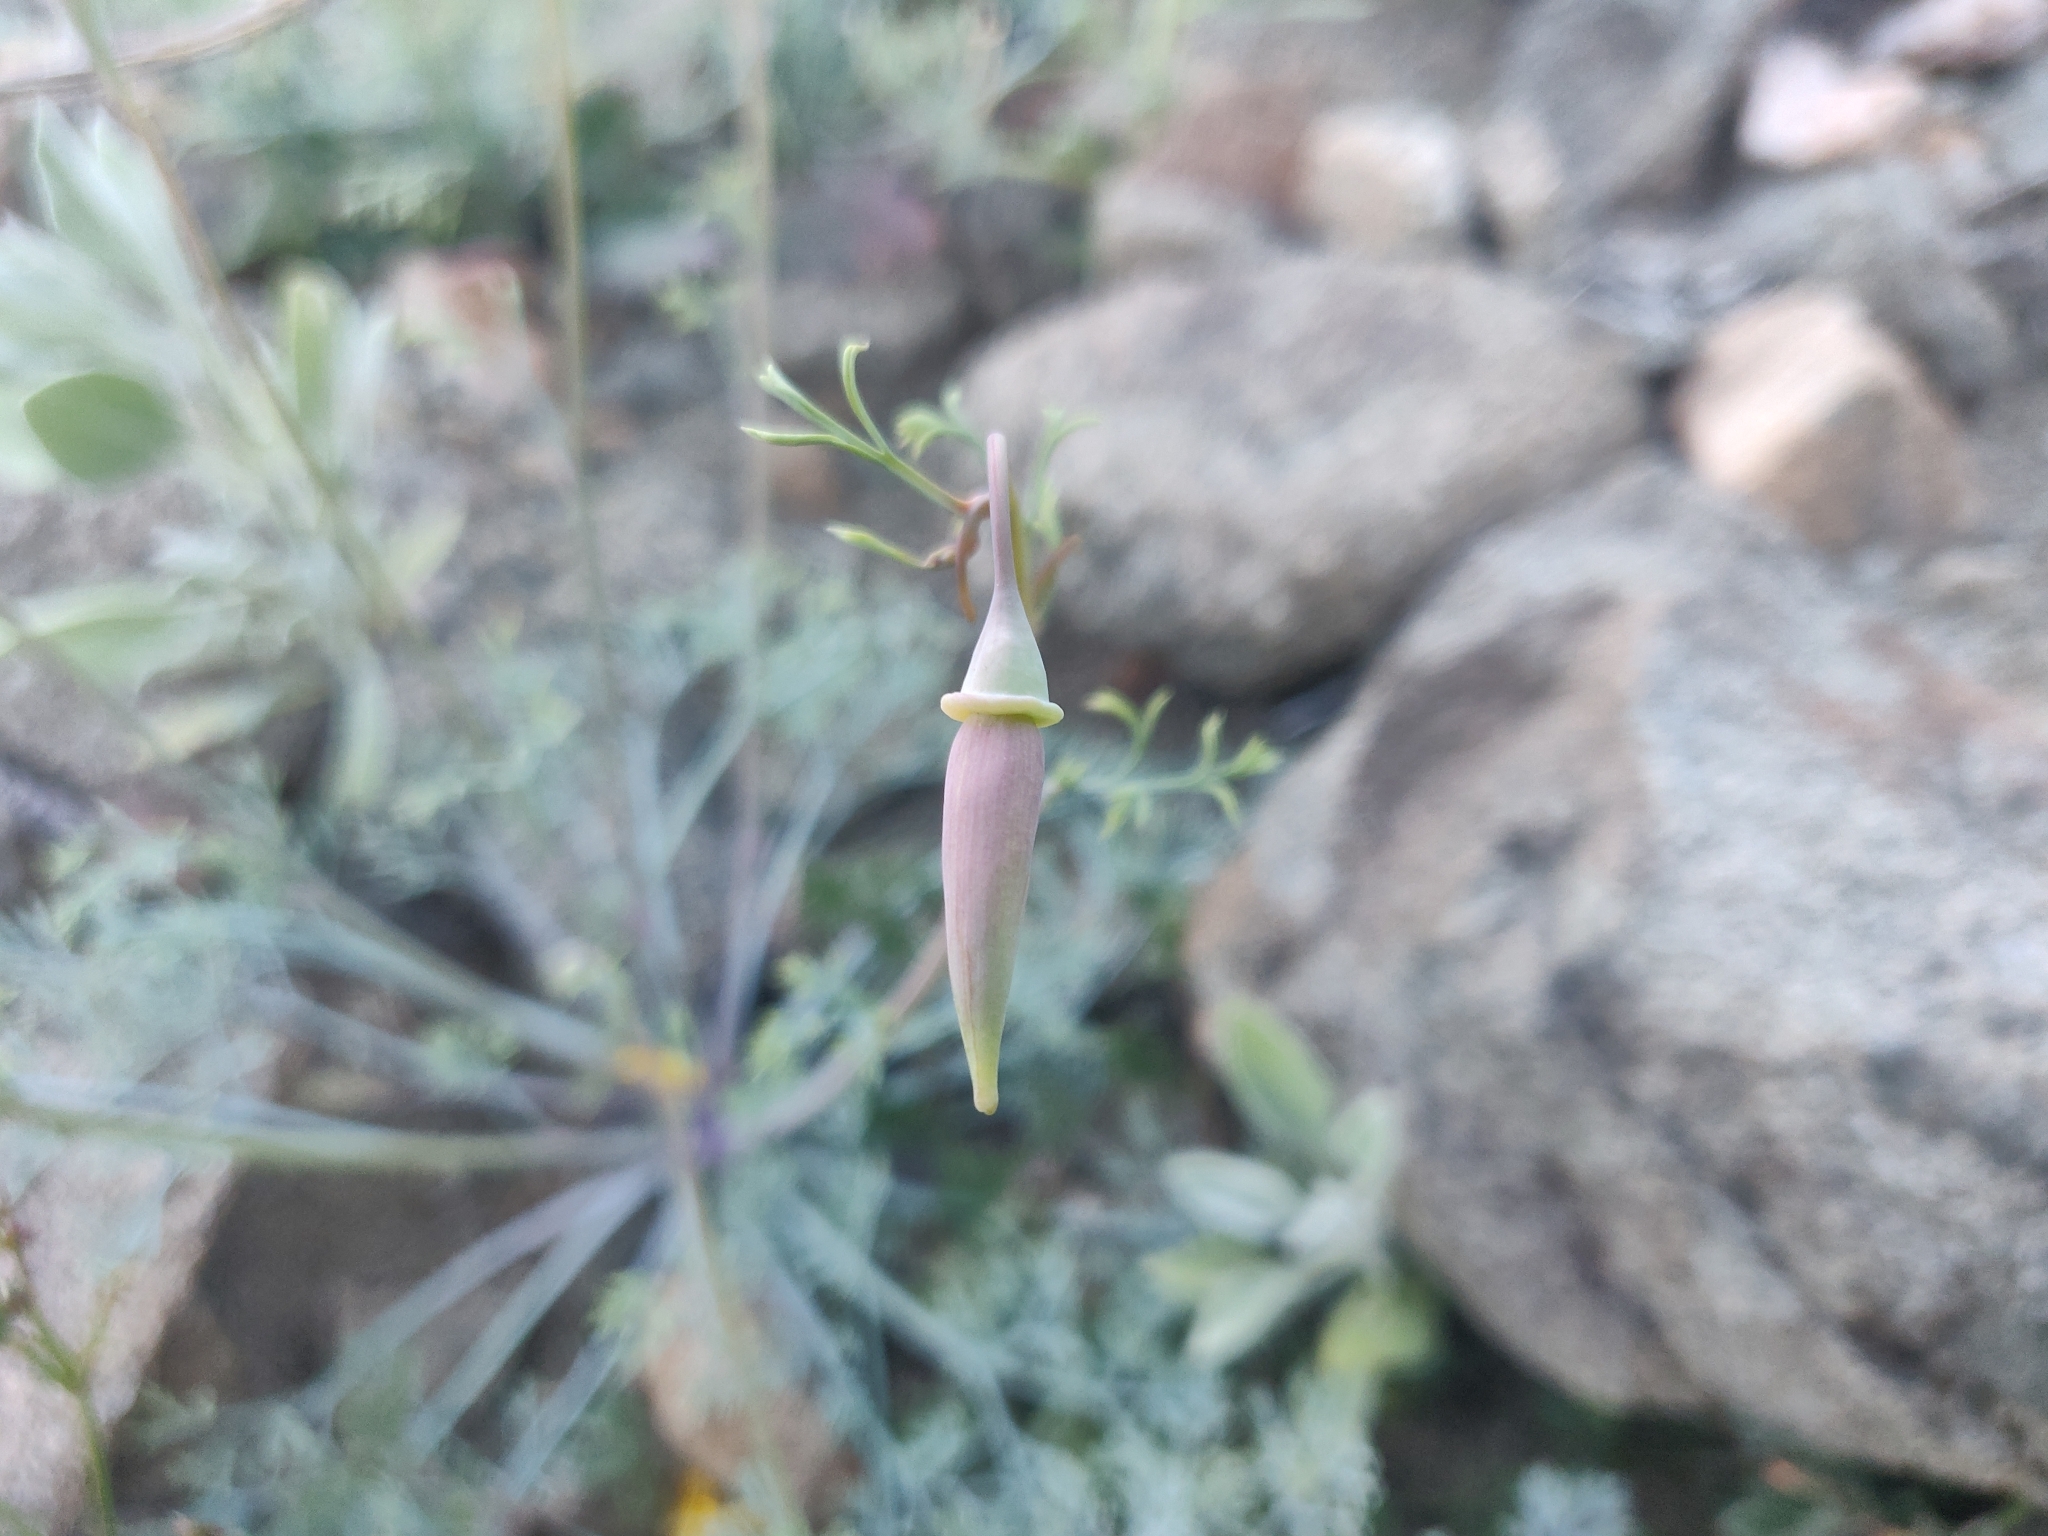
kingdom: Plantae
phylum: Tracheophyta
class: Magnoliopsida
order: Ranunculales
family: Papaveraceae
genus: Eschscholzia
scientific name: Eschscholzia papastillii
